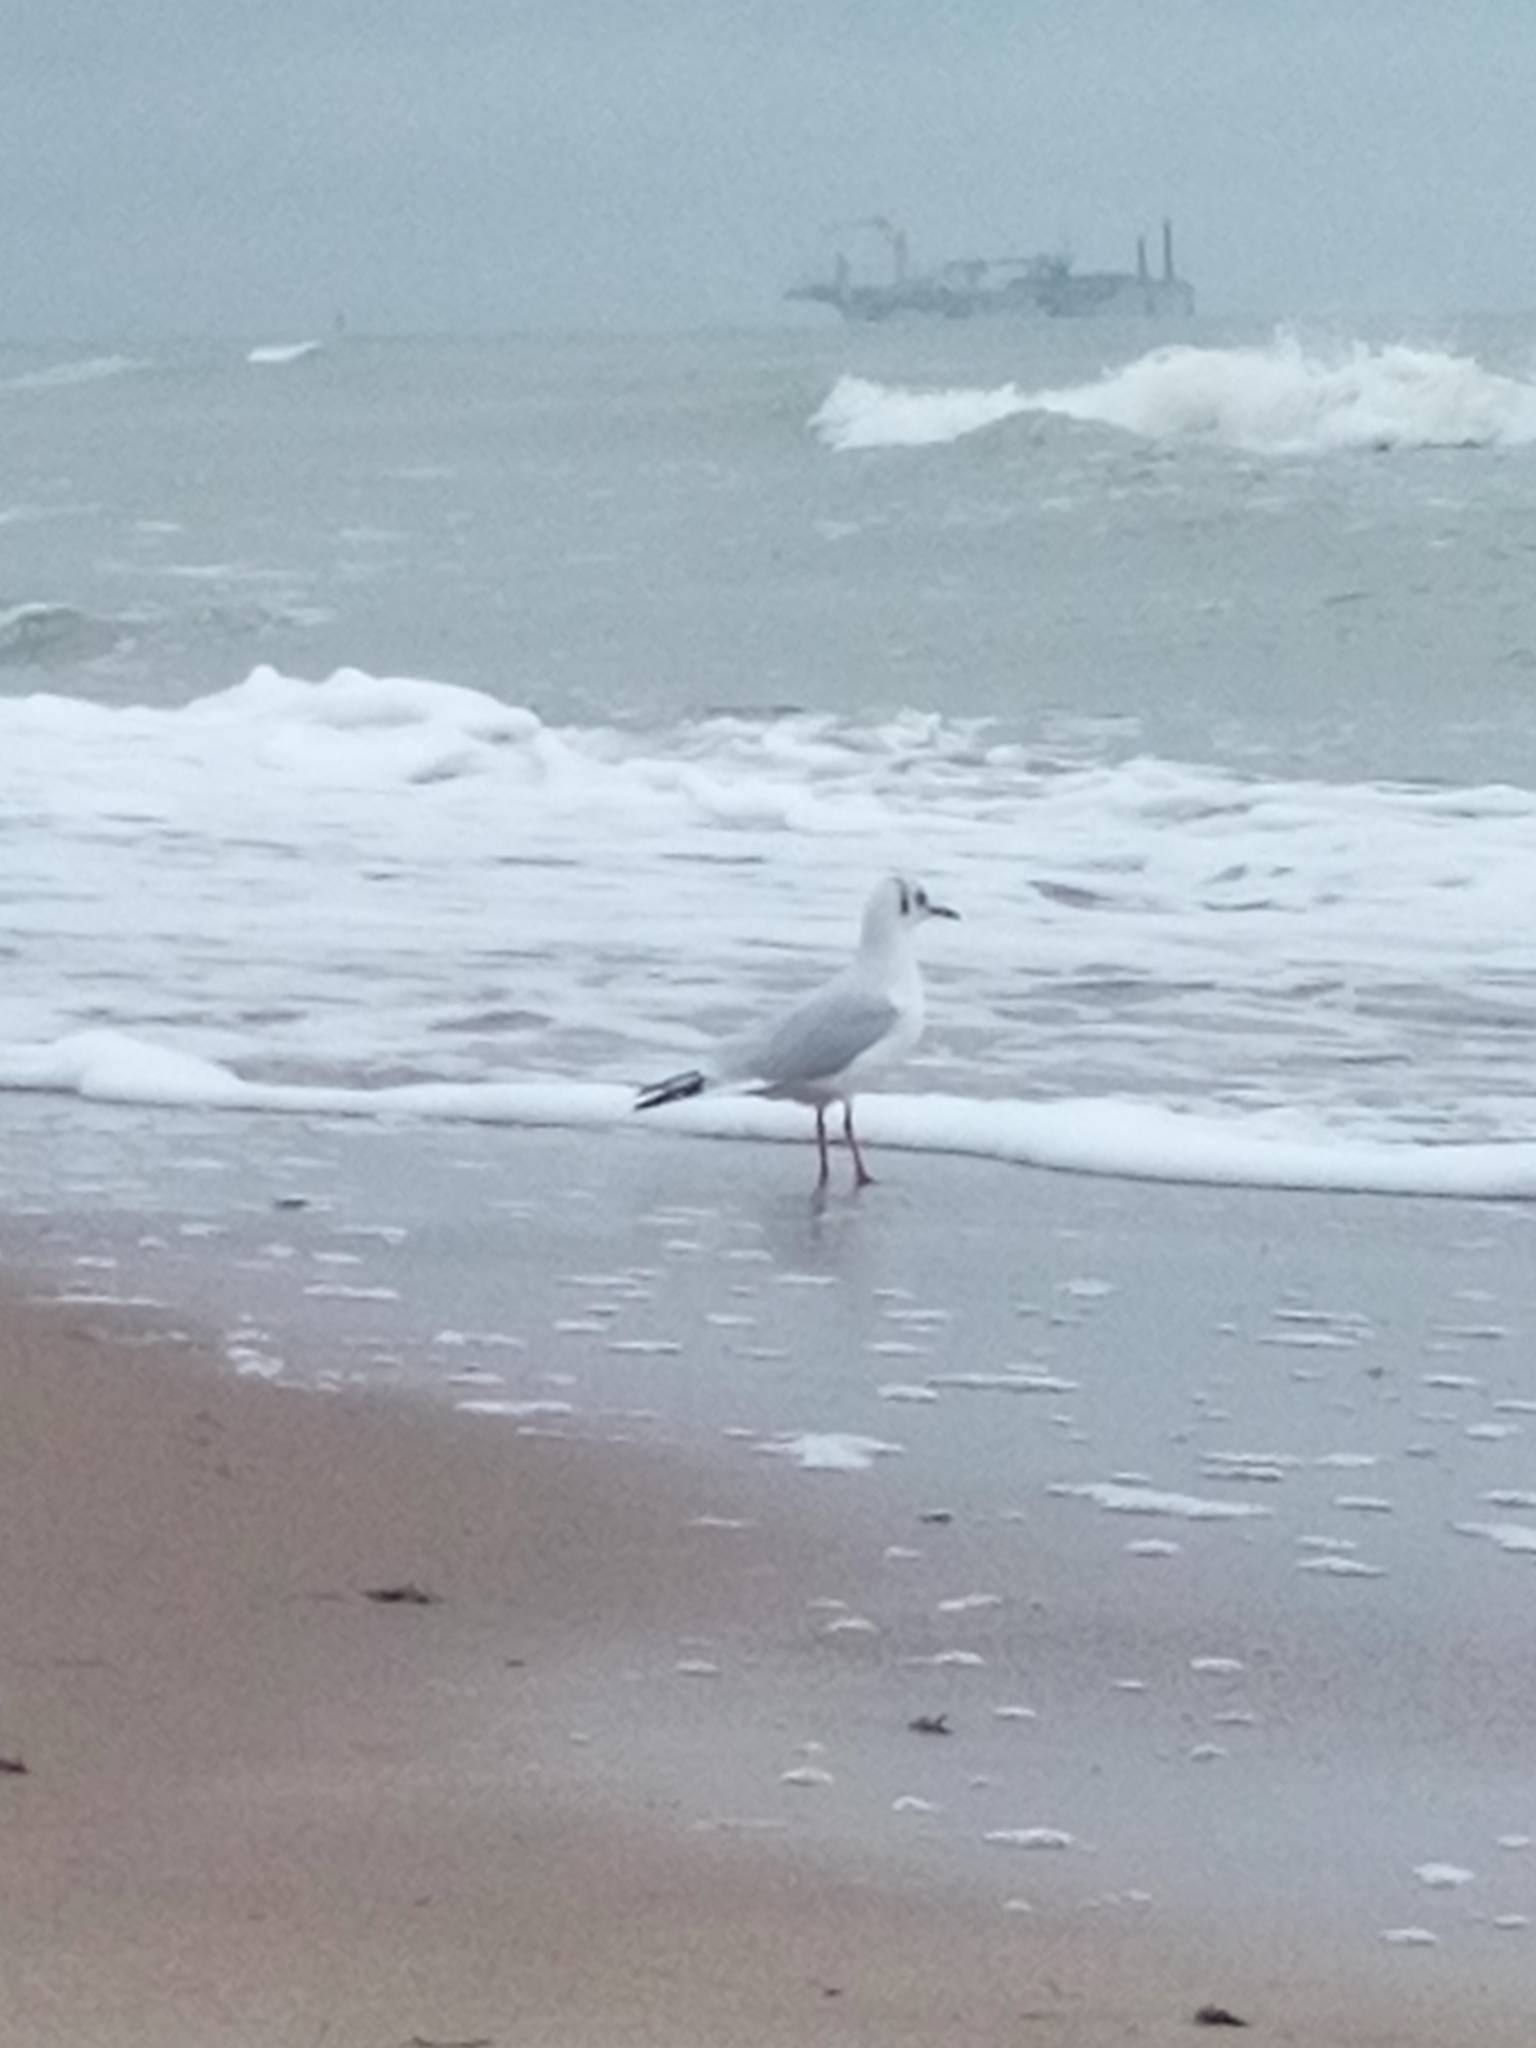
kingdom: Animalia
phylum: Chordata
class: Aves
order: Charadriiformes
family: Laridae
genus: Chroicocephalus
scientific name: Chroicocephalus ridibundus
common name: Black-headed gull
